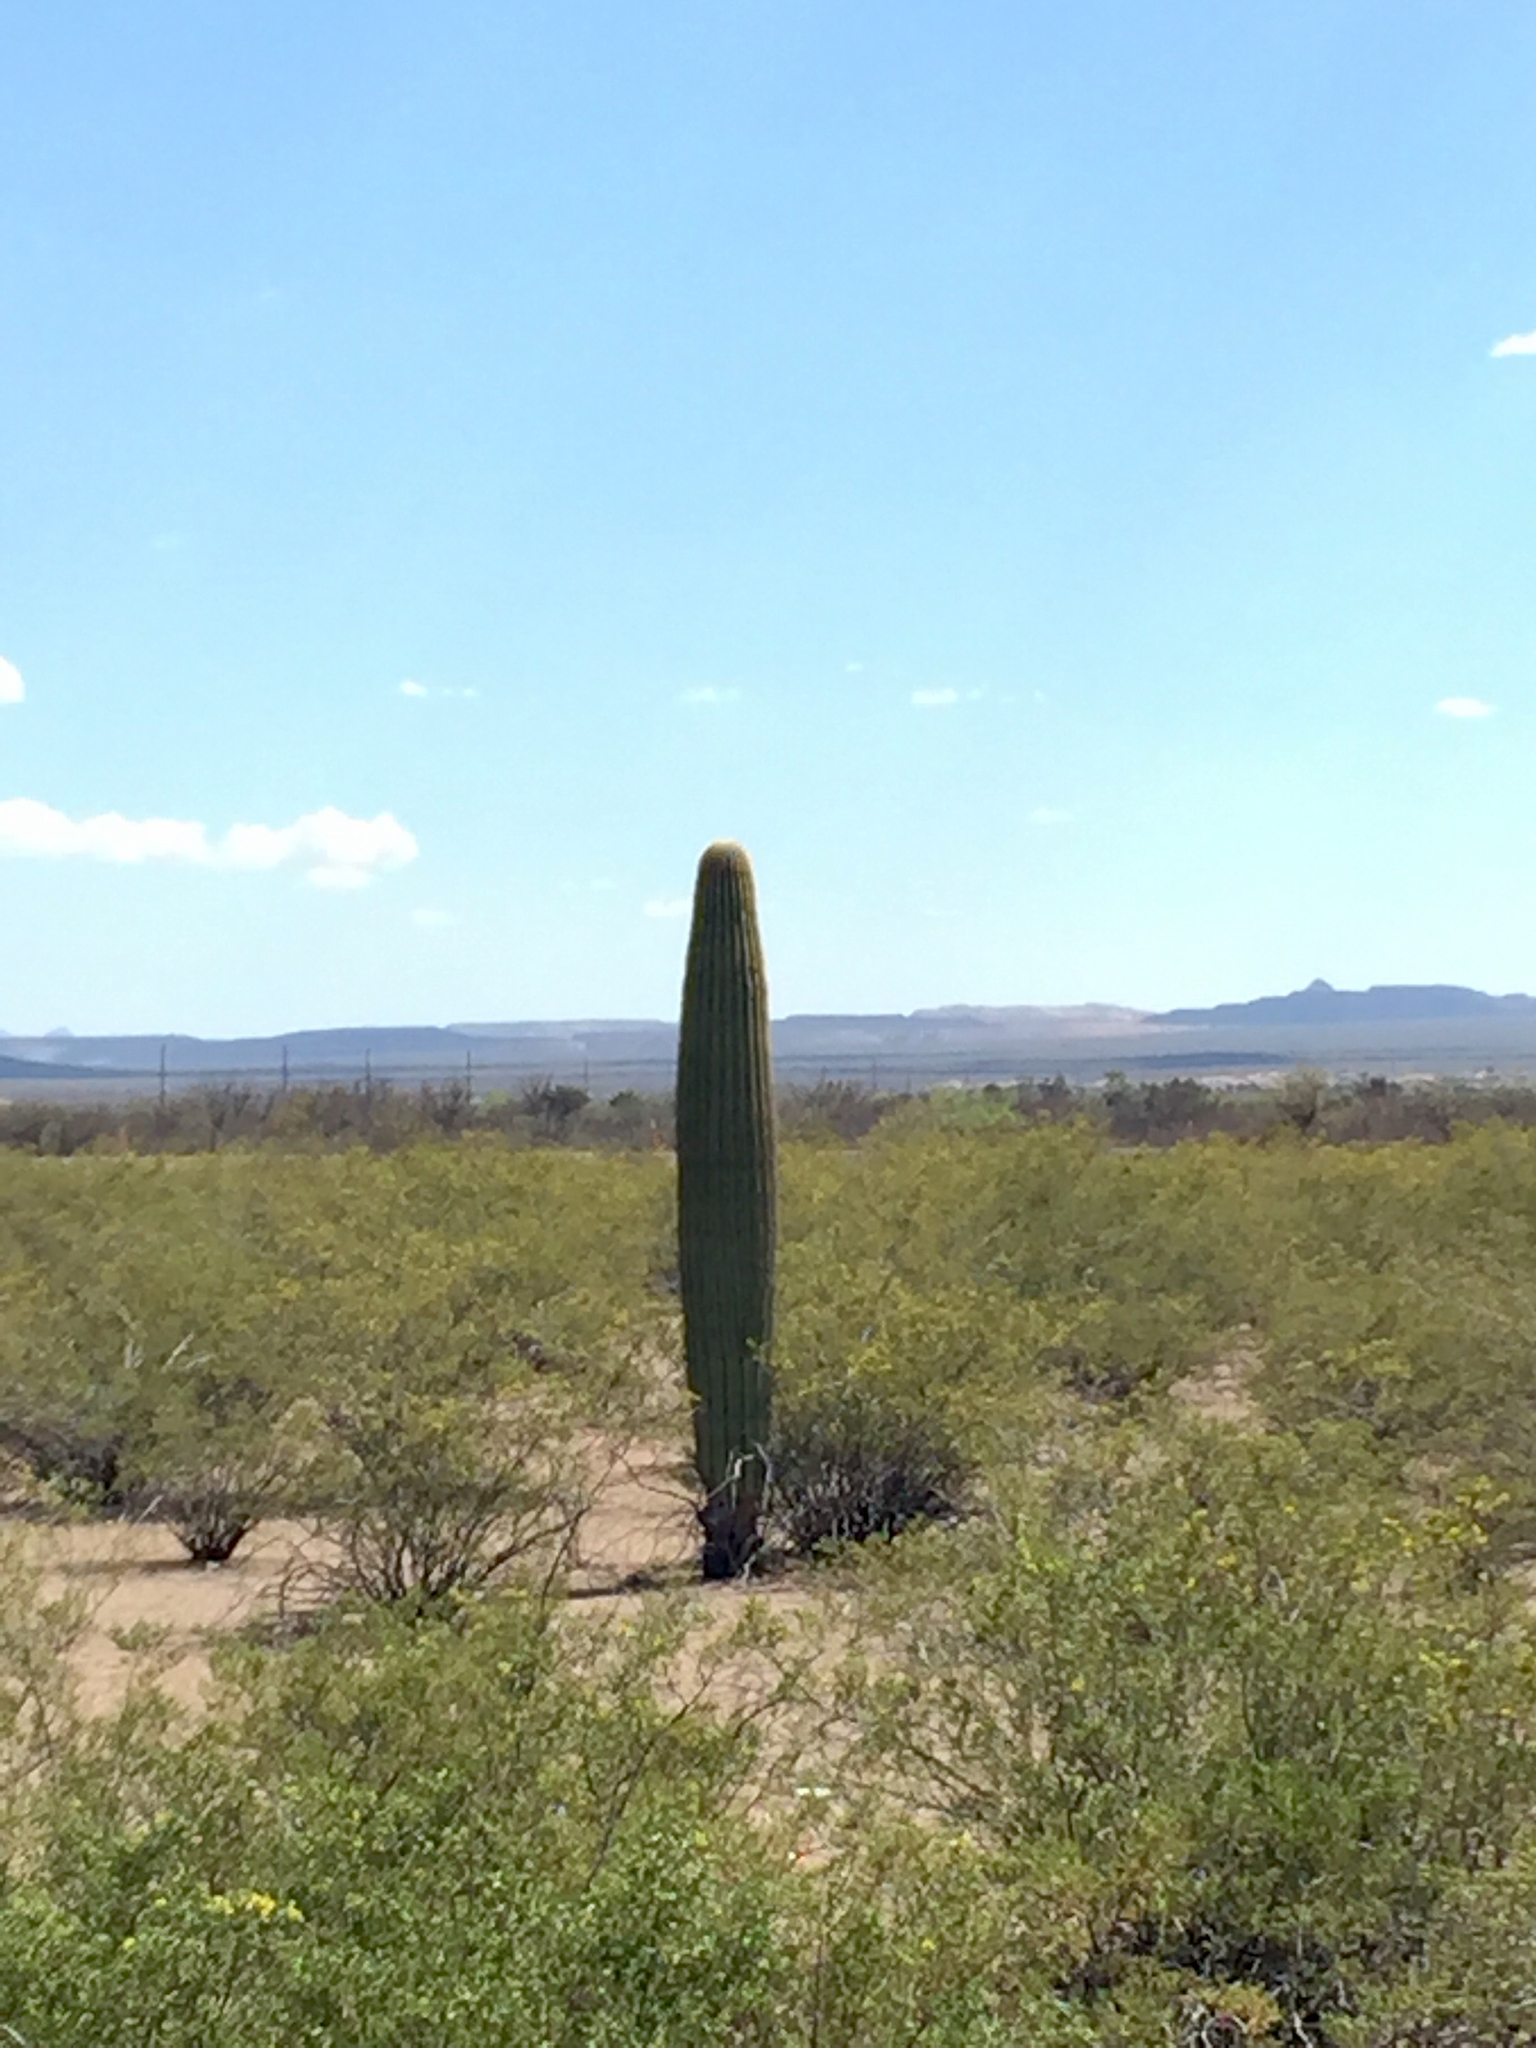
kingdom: Plantae
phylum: Tracheophyta
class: Magnoliopsida
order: Zygophyllales
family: Zygophyllaceae
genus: Larrea
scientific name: Larrea tridentata
